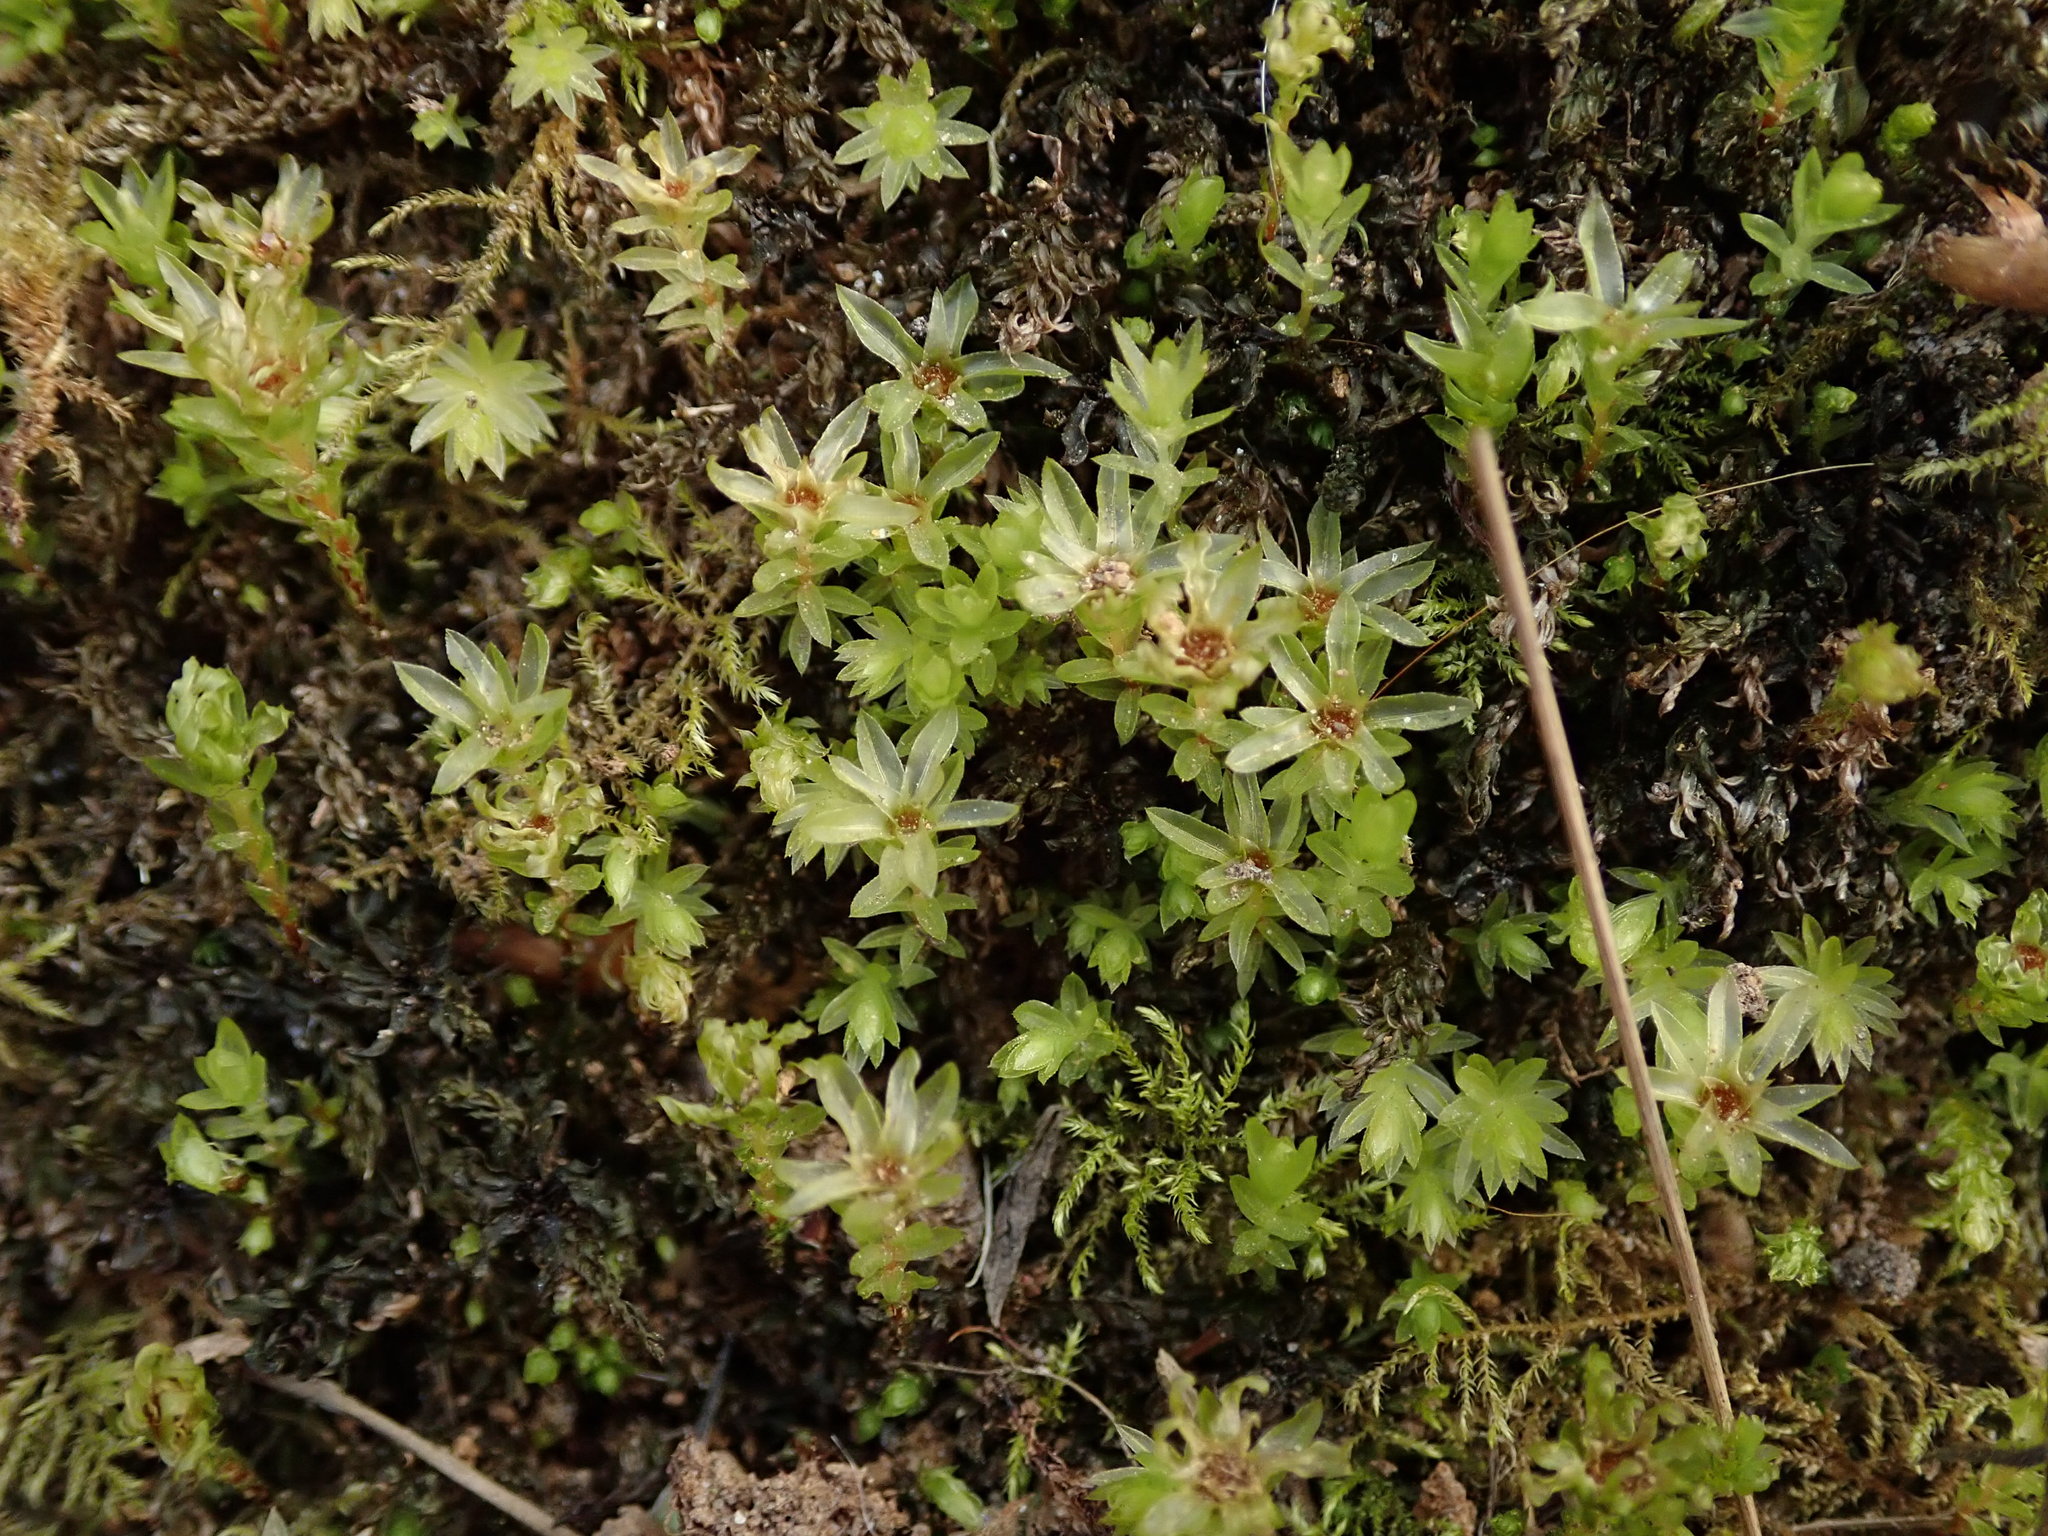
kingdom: Plantae
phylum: Bryophyta
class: Bryopsida
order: Bryales
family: Mniaceae
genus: Mnium
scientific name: Mnium hornum
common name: Swan's-neck leafy moss
